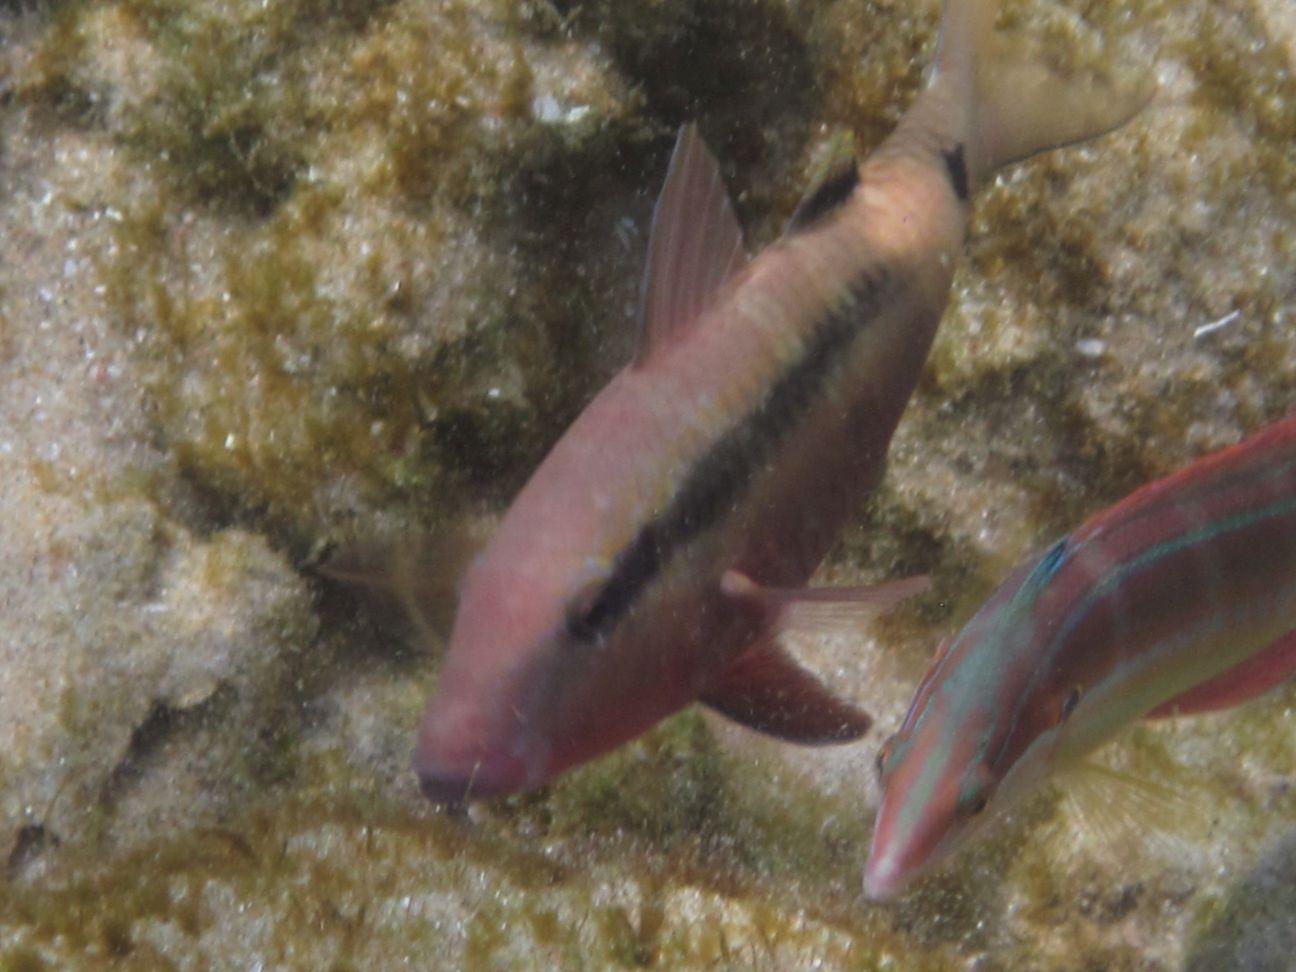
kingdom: Animalia
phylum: Chordata
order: Perciformes
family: Mullidae
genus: Parupeneus
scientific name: Parupeneus macronemus
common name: Long-barbel goatfish
